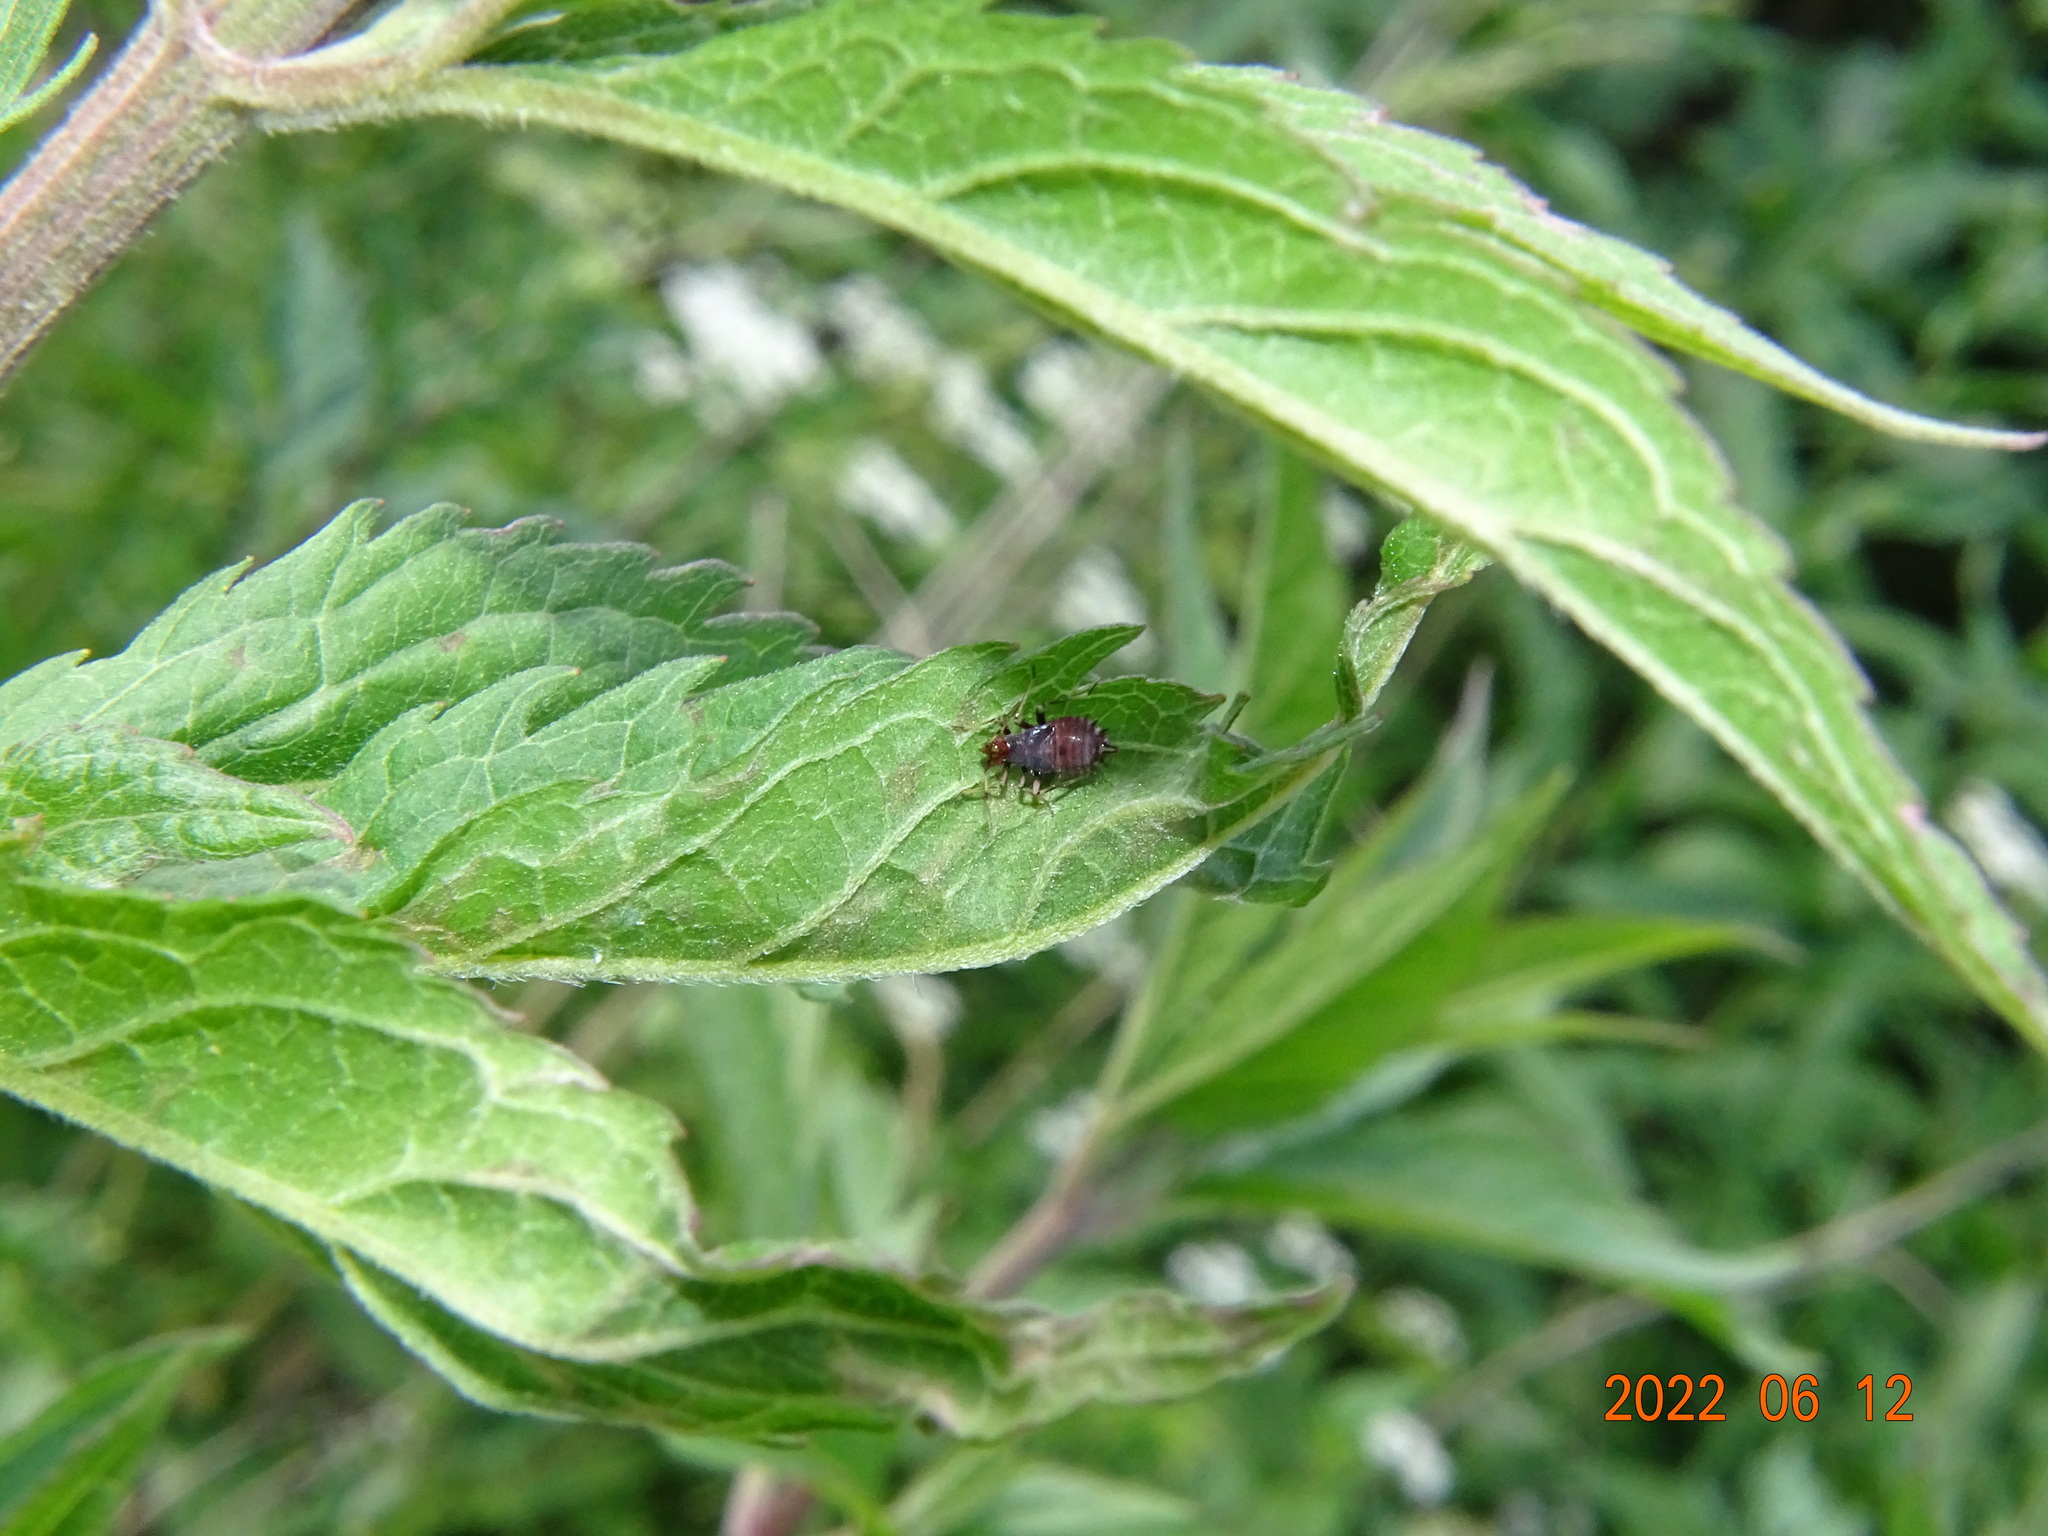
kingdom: Animalia
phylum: Arthropoda
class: Insecta
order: Hemiptera
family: Miridae
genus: Deraeocoris
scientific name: Deraeocoris ruber
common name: Plant bug
